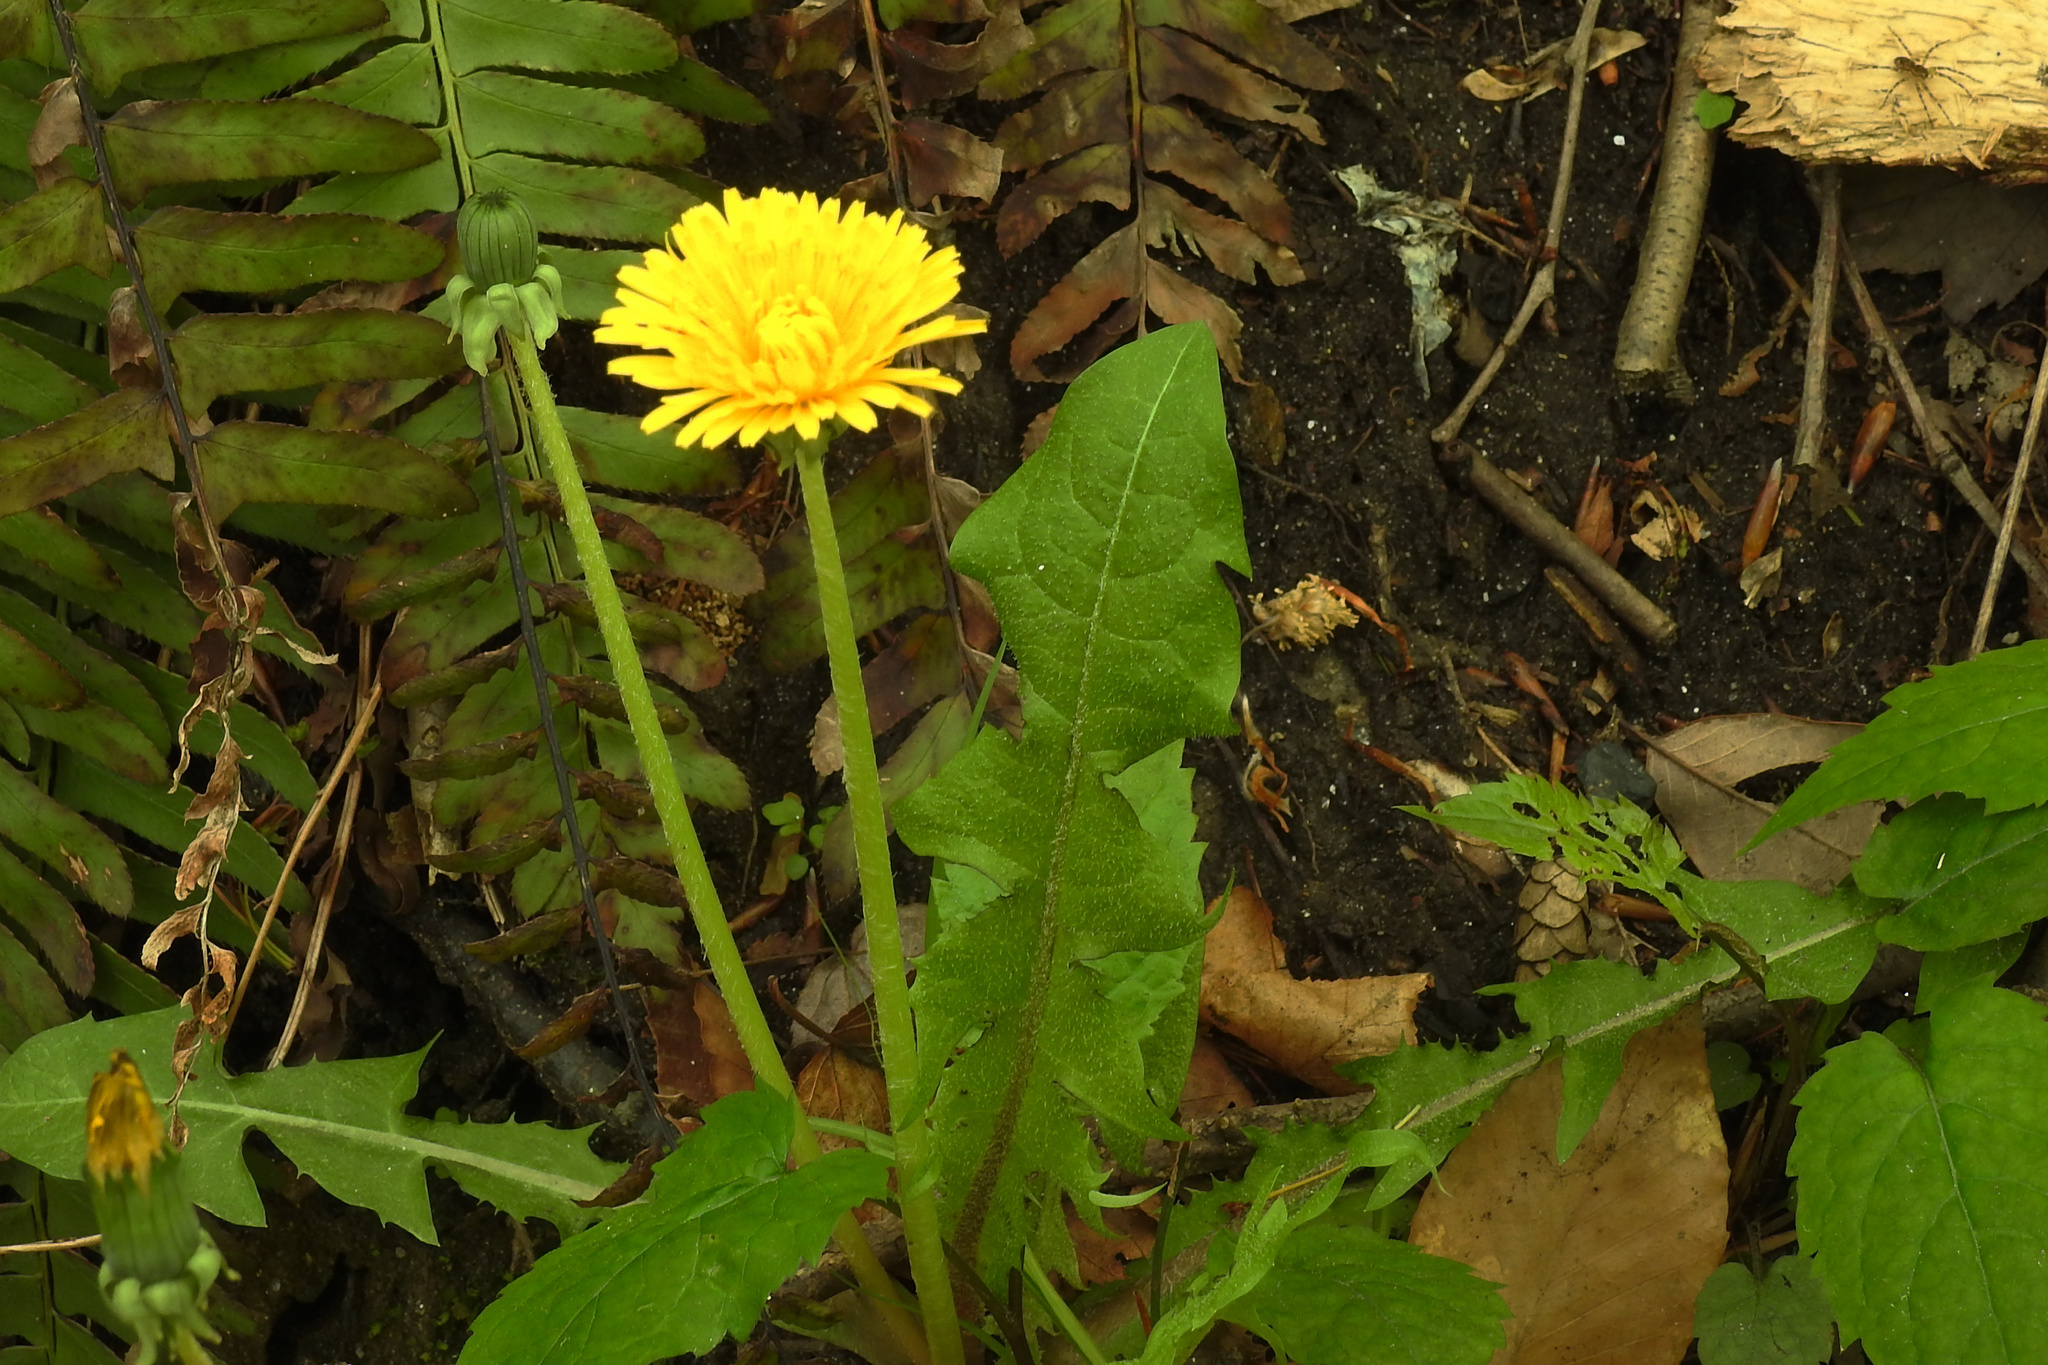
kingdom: Plantae
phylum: Tracheophyta
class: Magnoliopsida
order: Asterales
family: Asteraceae
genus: Taraxacum
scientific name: Taraxacum officinale
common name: Common dandelion
